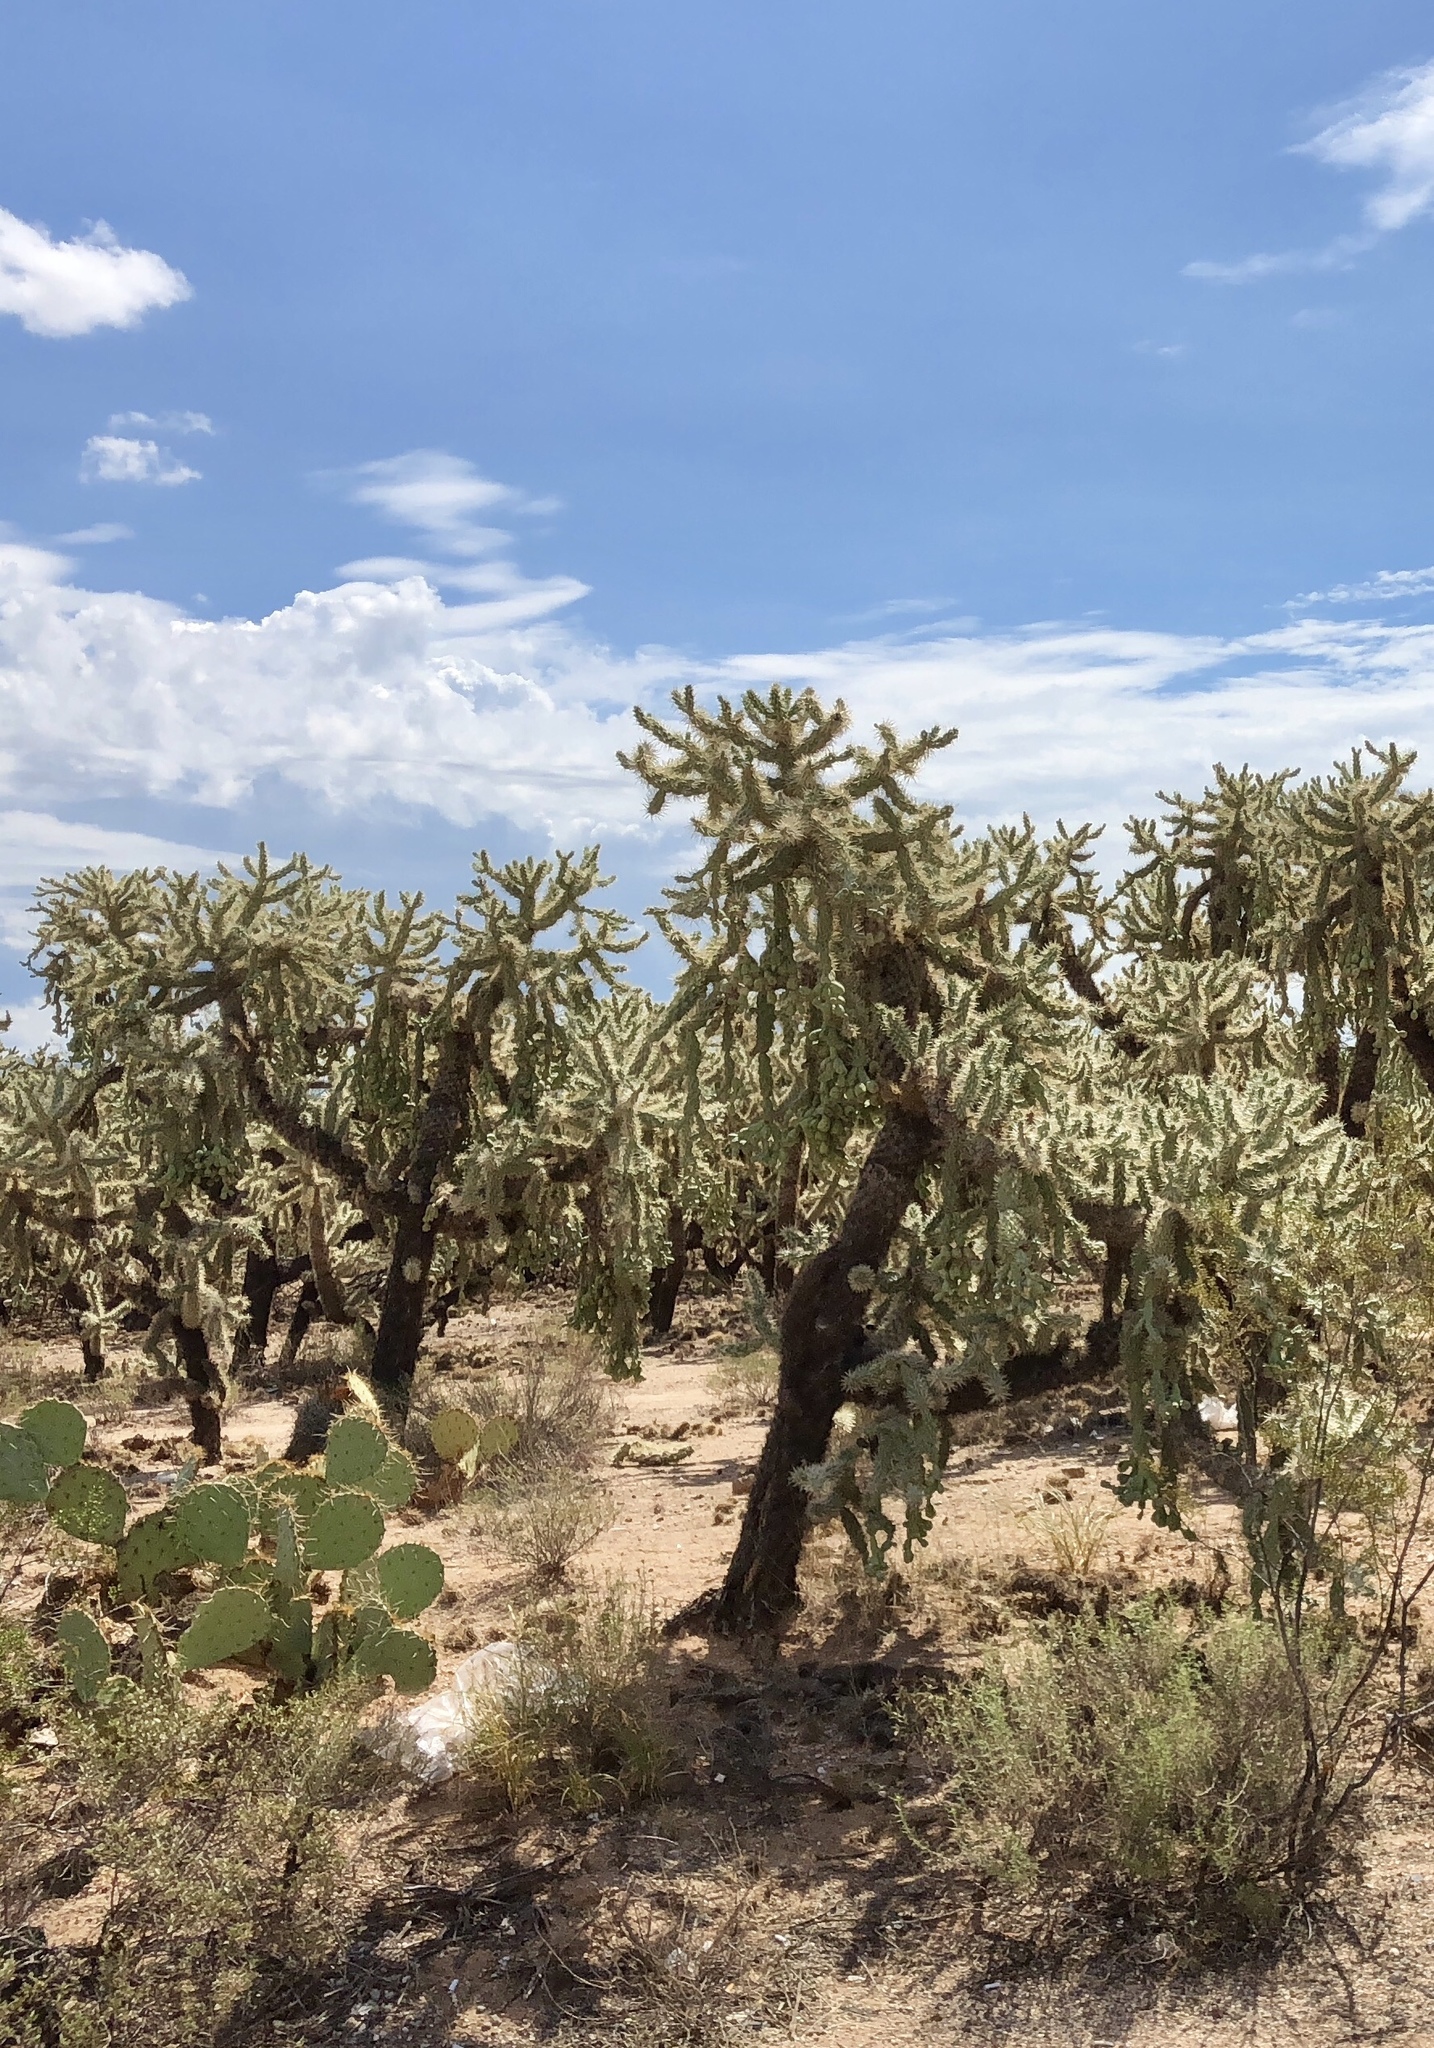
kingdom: Plantae
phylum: Tracheophyta
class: Magnoliopsida
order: Caryophyllales
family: Cactaceae
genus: Cylindropuntia
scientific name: Cylindropuntia fulgida
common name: Jumping cholla
